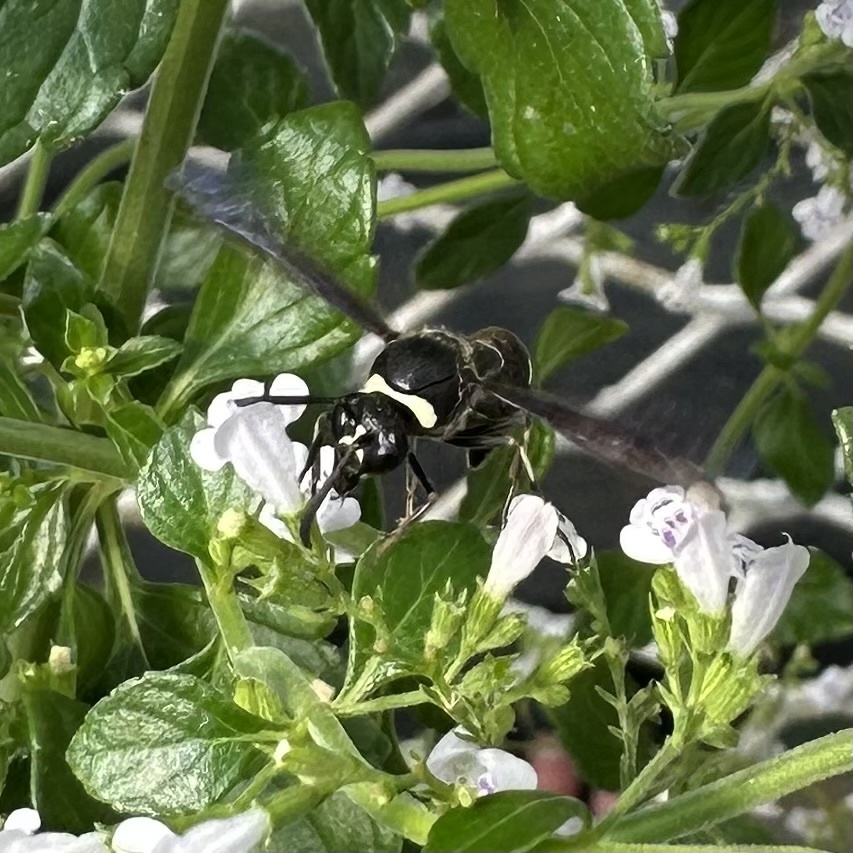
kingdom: Animalia
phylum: Arthropoda
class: Insecta
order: Hymenoptera
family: Vespidae
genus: Eumenes
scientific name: Eumenes fraternus
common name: Fraternal potter wasp
